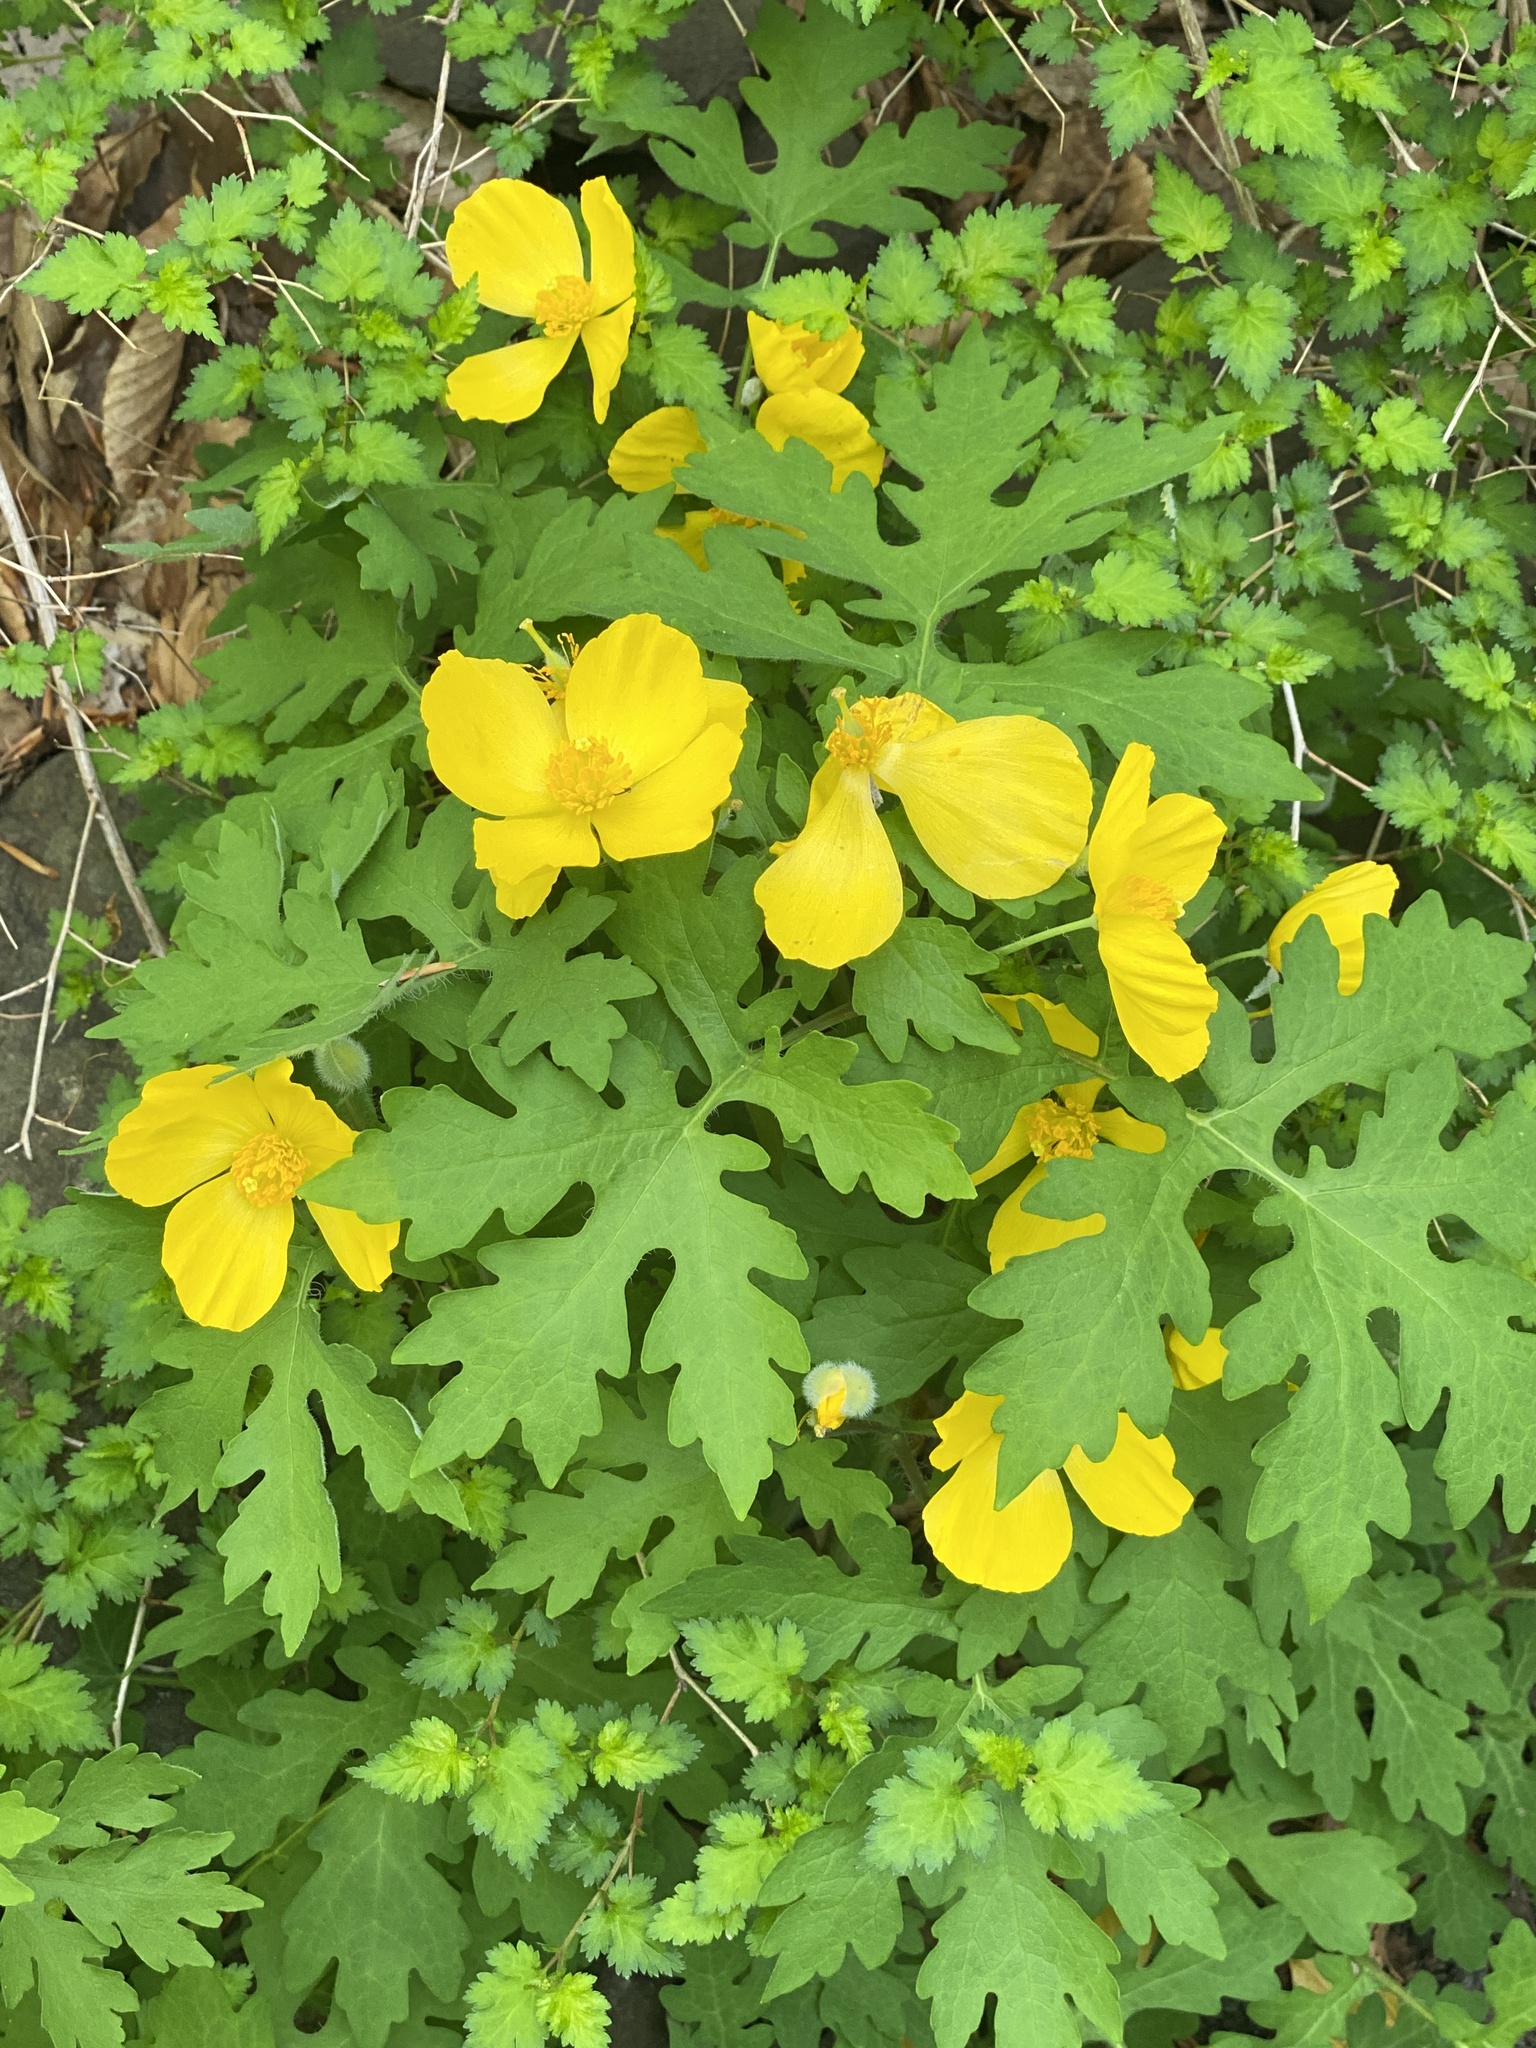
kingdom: Plantae
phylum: Tracheophyta
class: Magnoliopsida
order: Ranunculales
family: Papaveraceae
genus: Stylophorum
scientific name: Stylophorum diphyllum
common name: Celandine poppy
